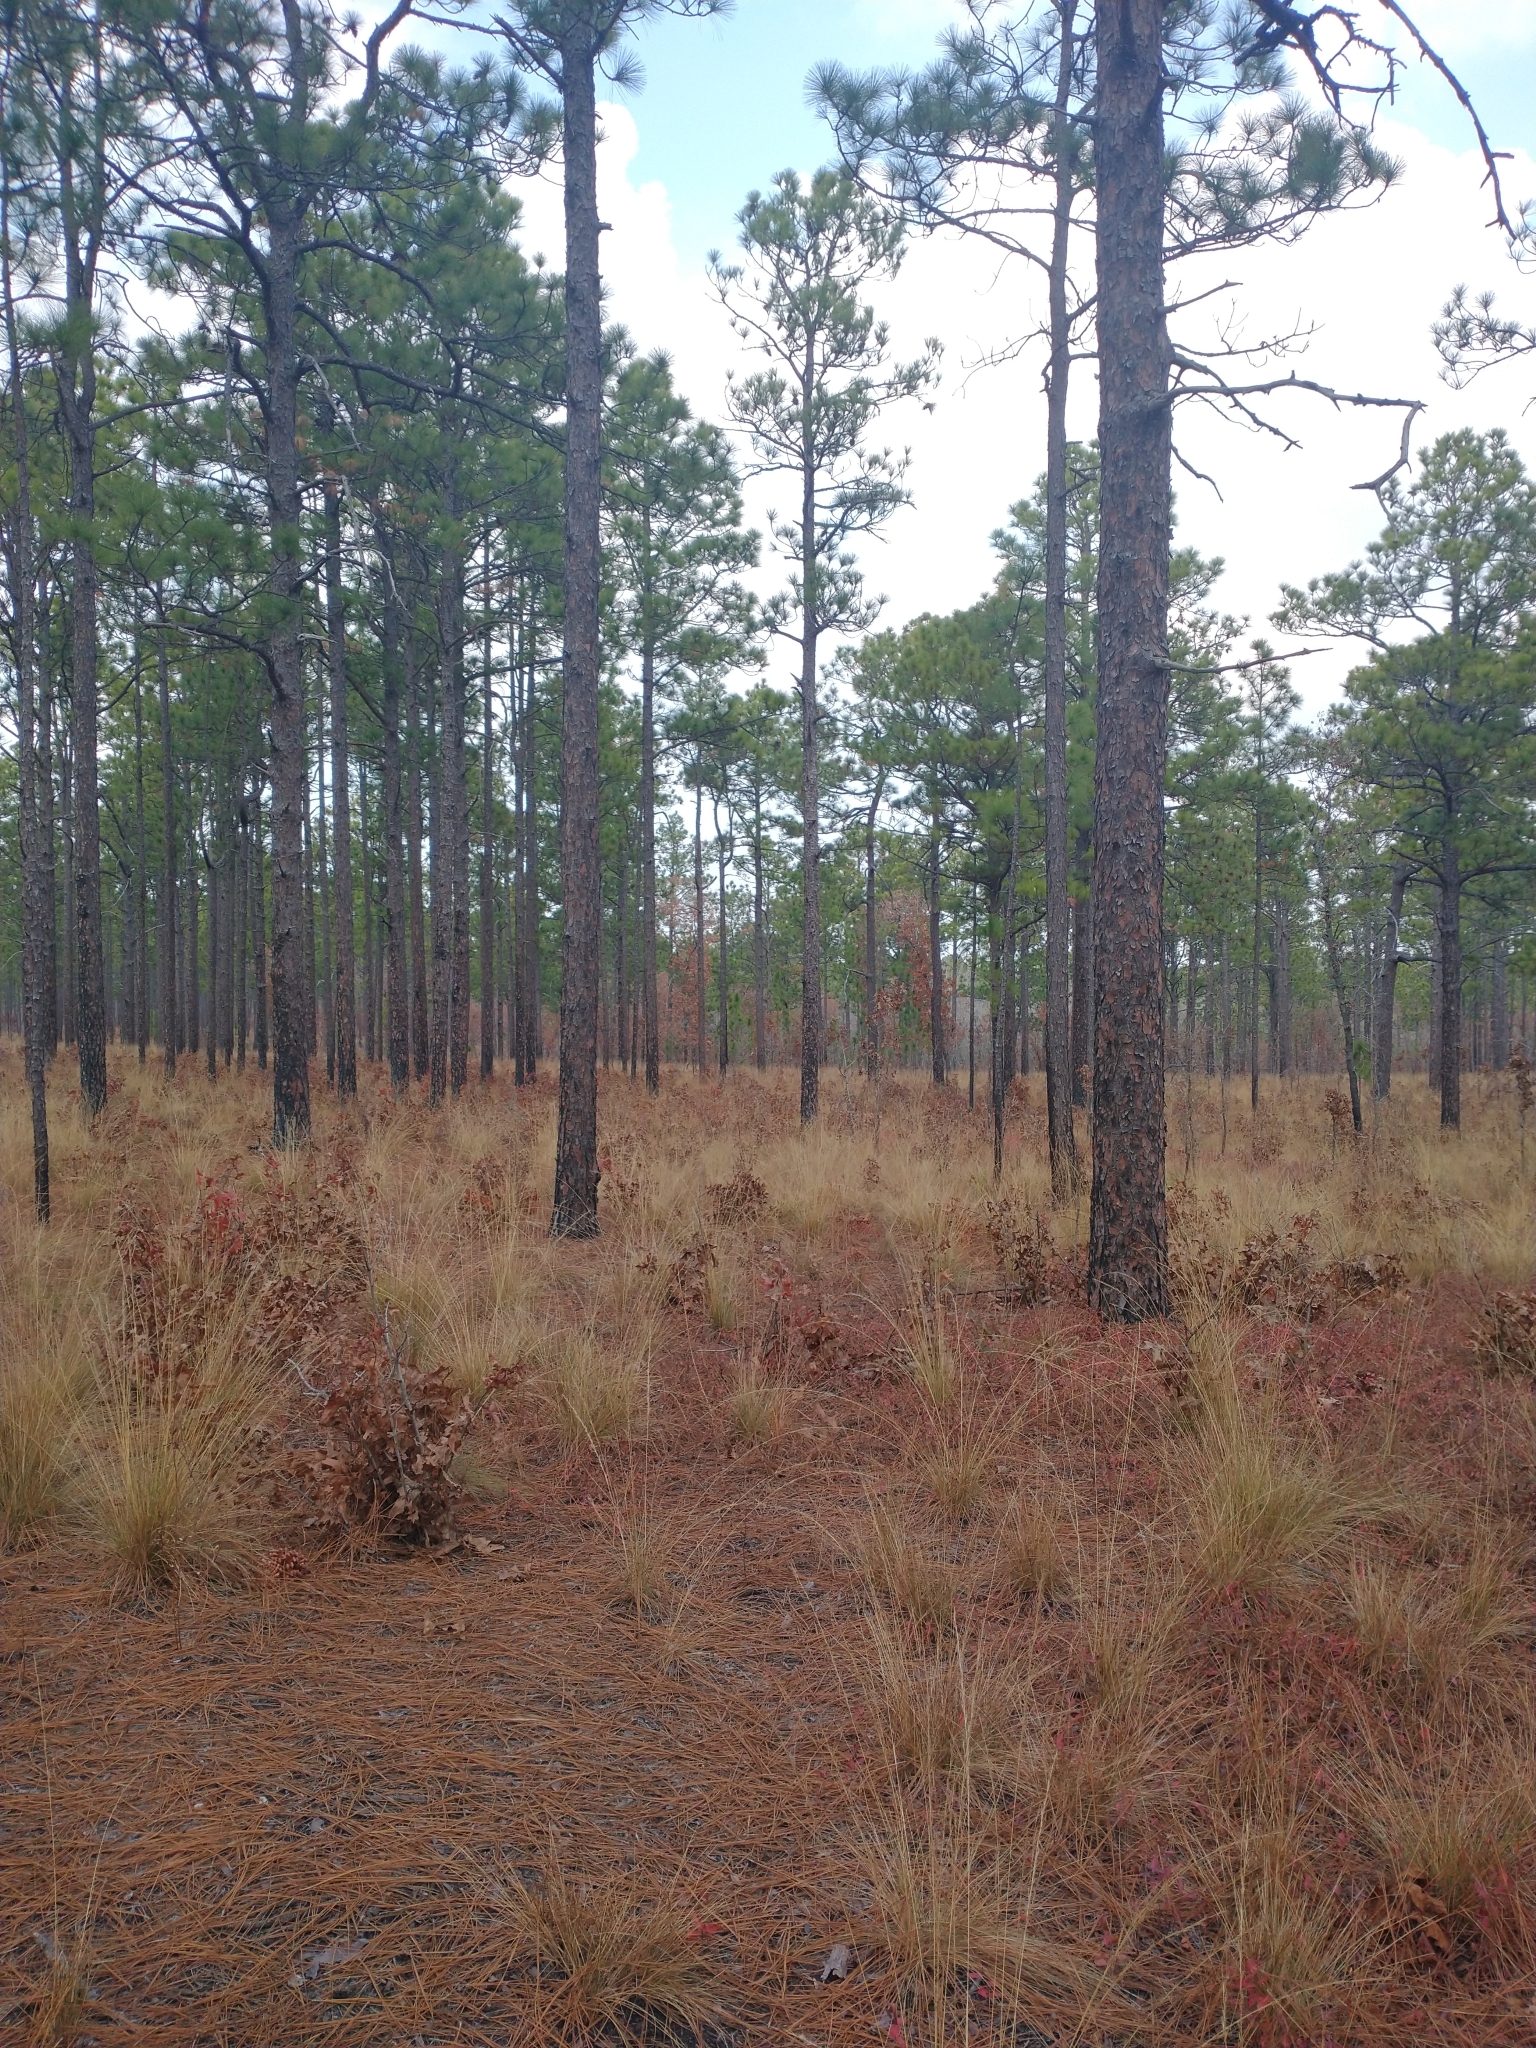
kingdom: Plantae
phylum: Tracheophyta
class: Pinopsida
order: Pinales
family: Pinaceae
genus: Pinus
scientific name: Pinus palustris
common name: Longleaf pine
